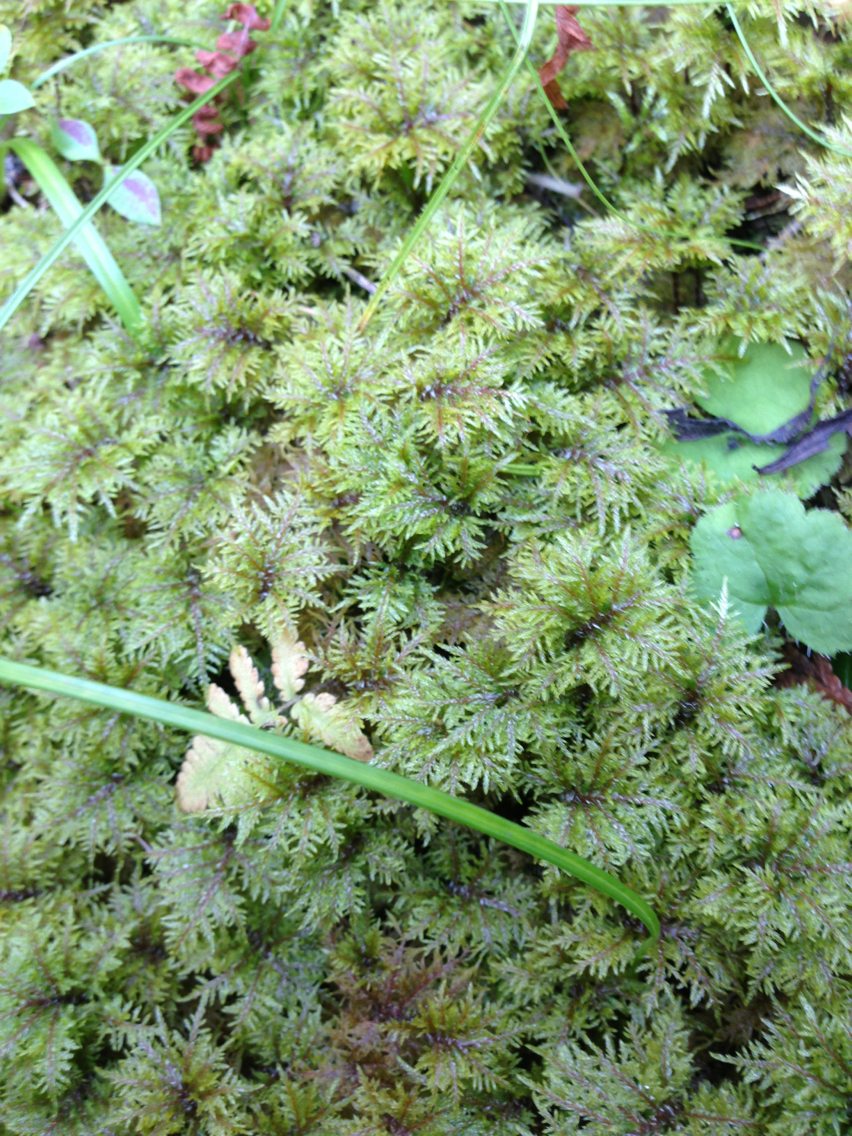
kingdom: Plantae
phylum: Bryophyta
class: Bryopsida
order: Hypnales
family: Hylocomiaceae
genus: Hylocomium
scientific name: Hylocomium splendens
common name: Stairstep moss
